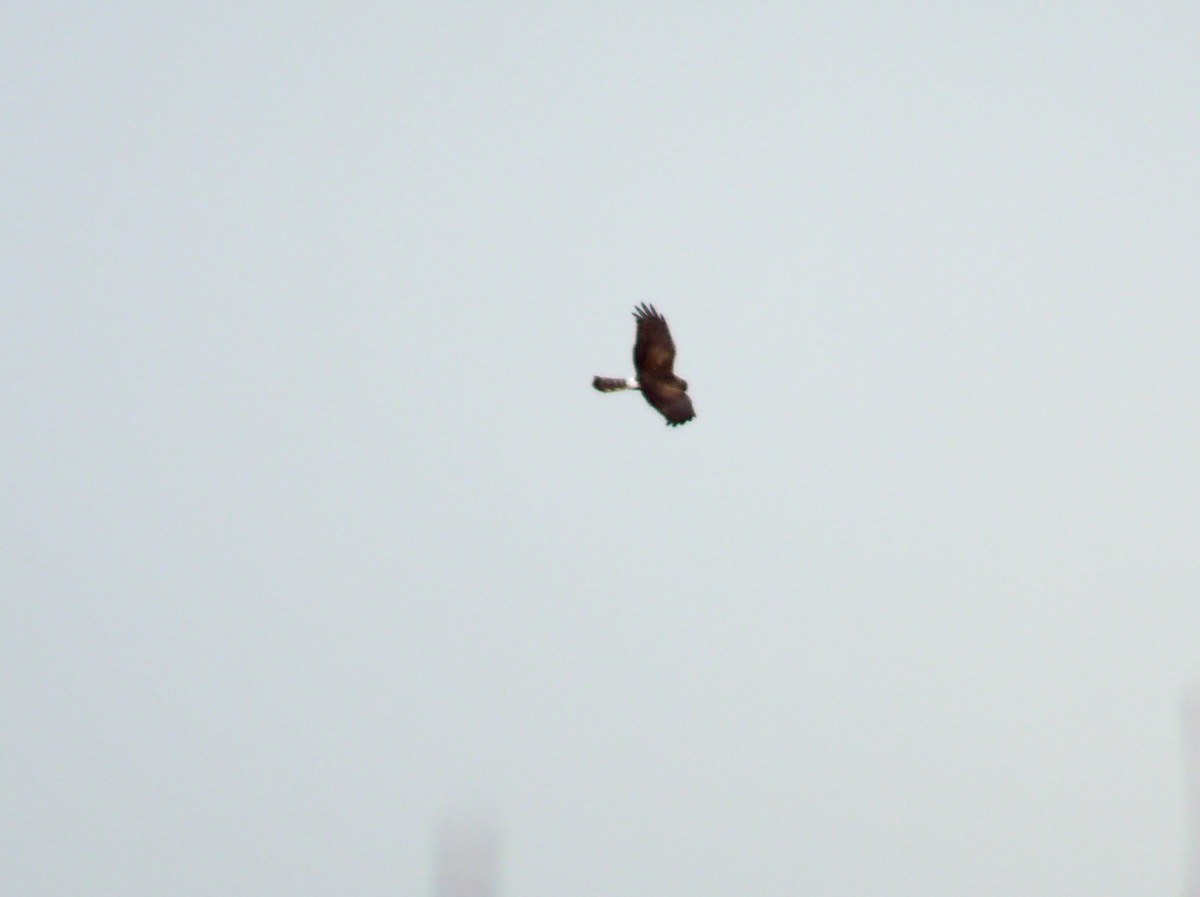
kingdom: Animalia
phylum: Chordata
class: Aves
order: Accipitriformes
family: Accipitridae
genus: Circus
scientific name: Circus cyaneus
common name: Hen harrier
